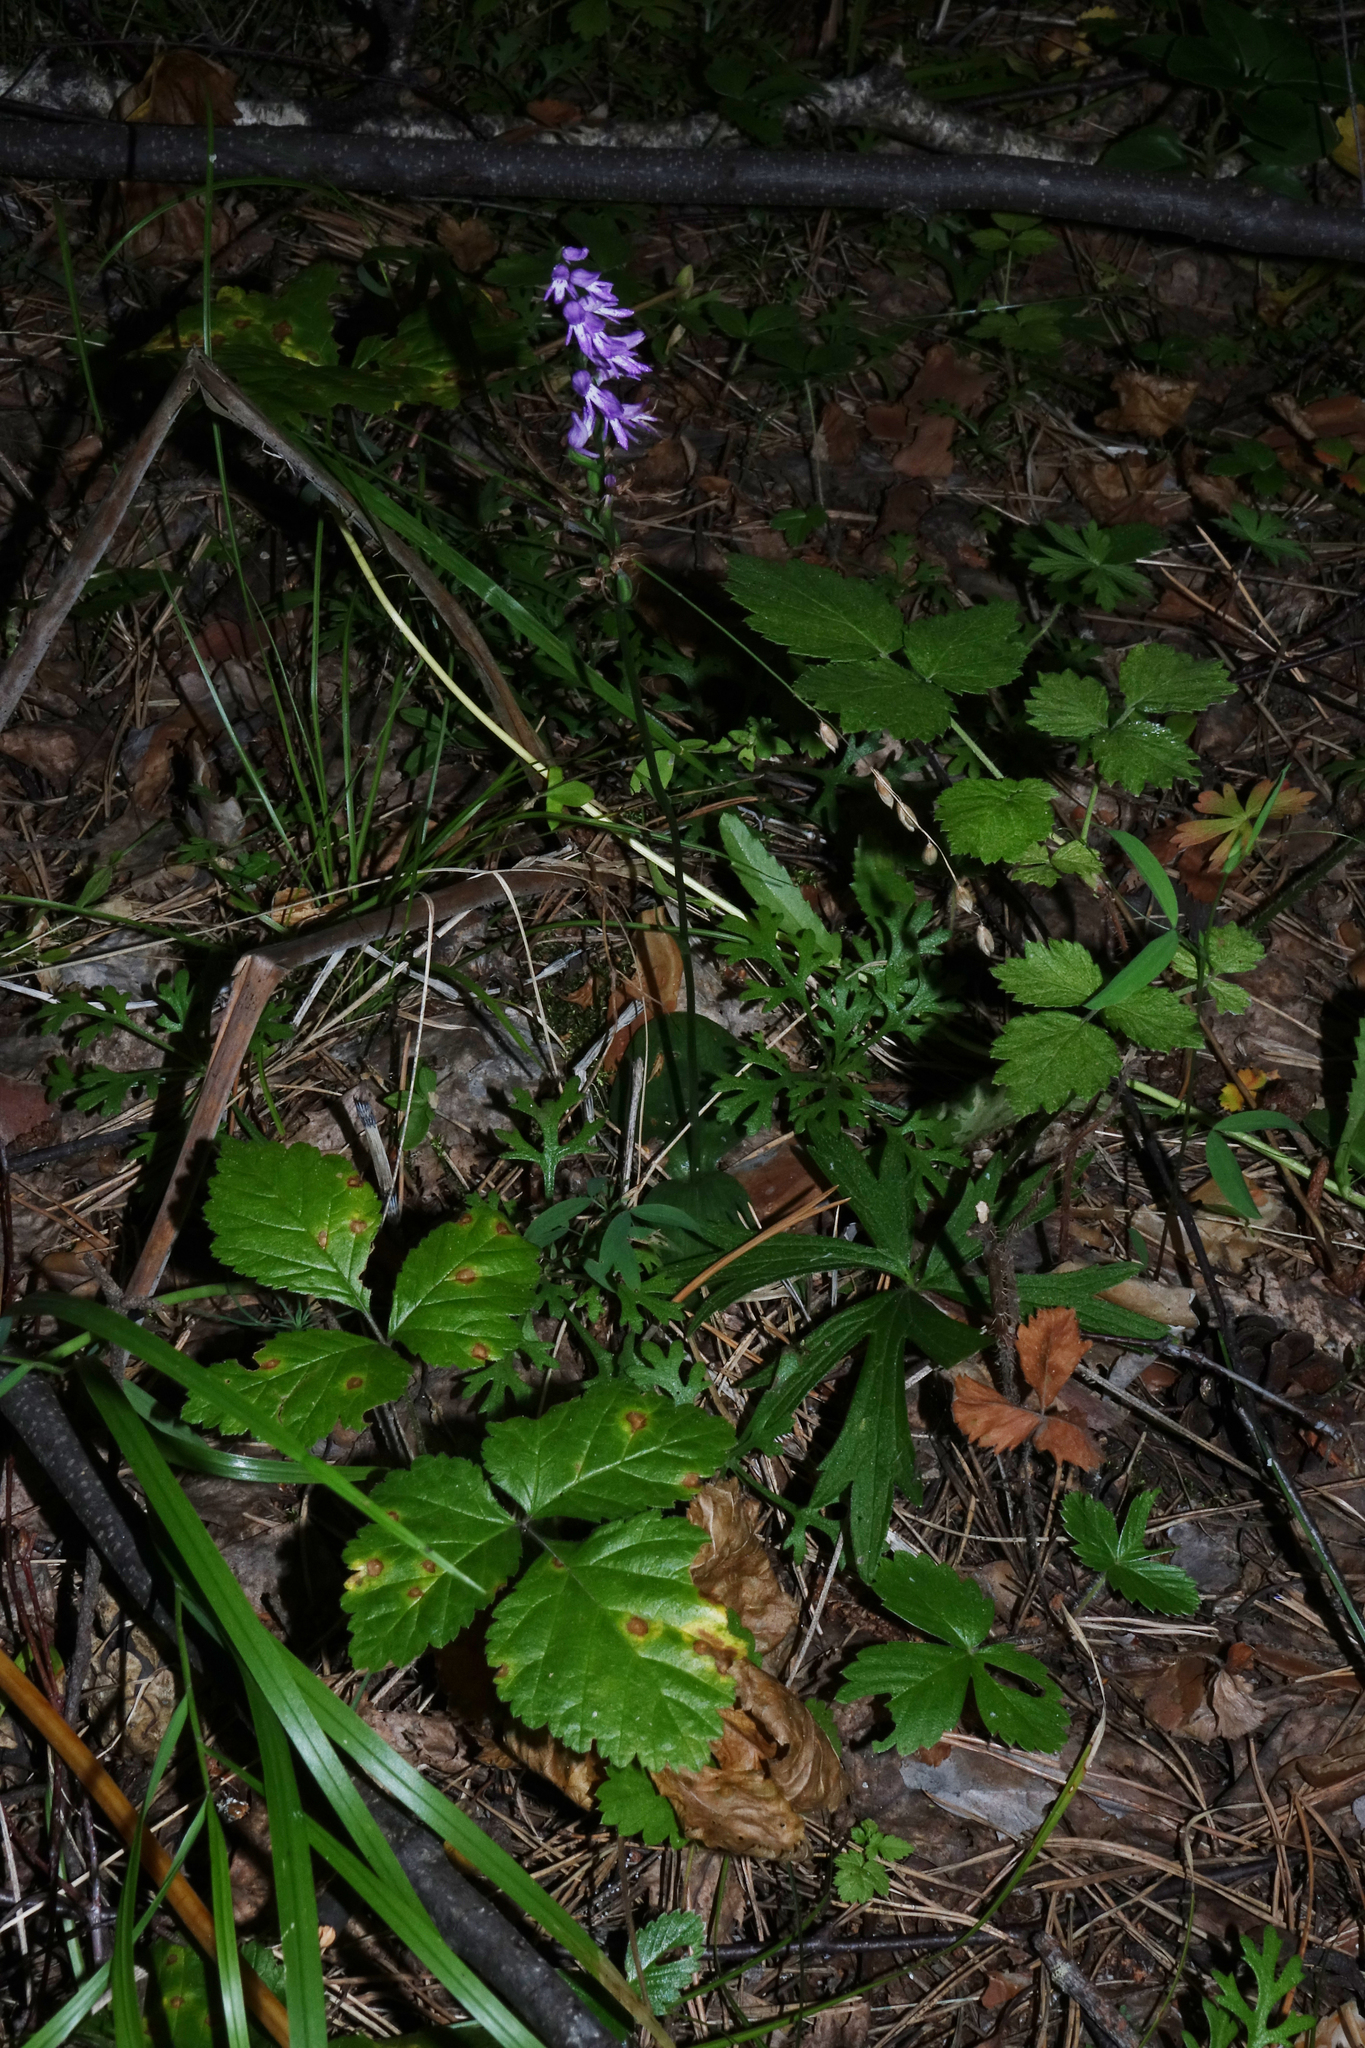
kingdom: Plantae
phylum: Tracheophyta
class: Liliopsida
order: Asparagales
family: Orchidaceae
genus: Hemipilia
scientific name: Hemipilia cucullata
